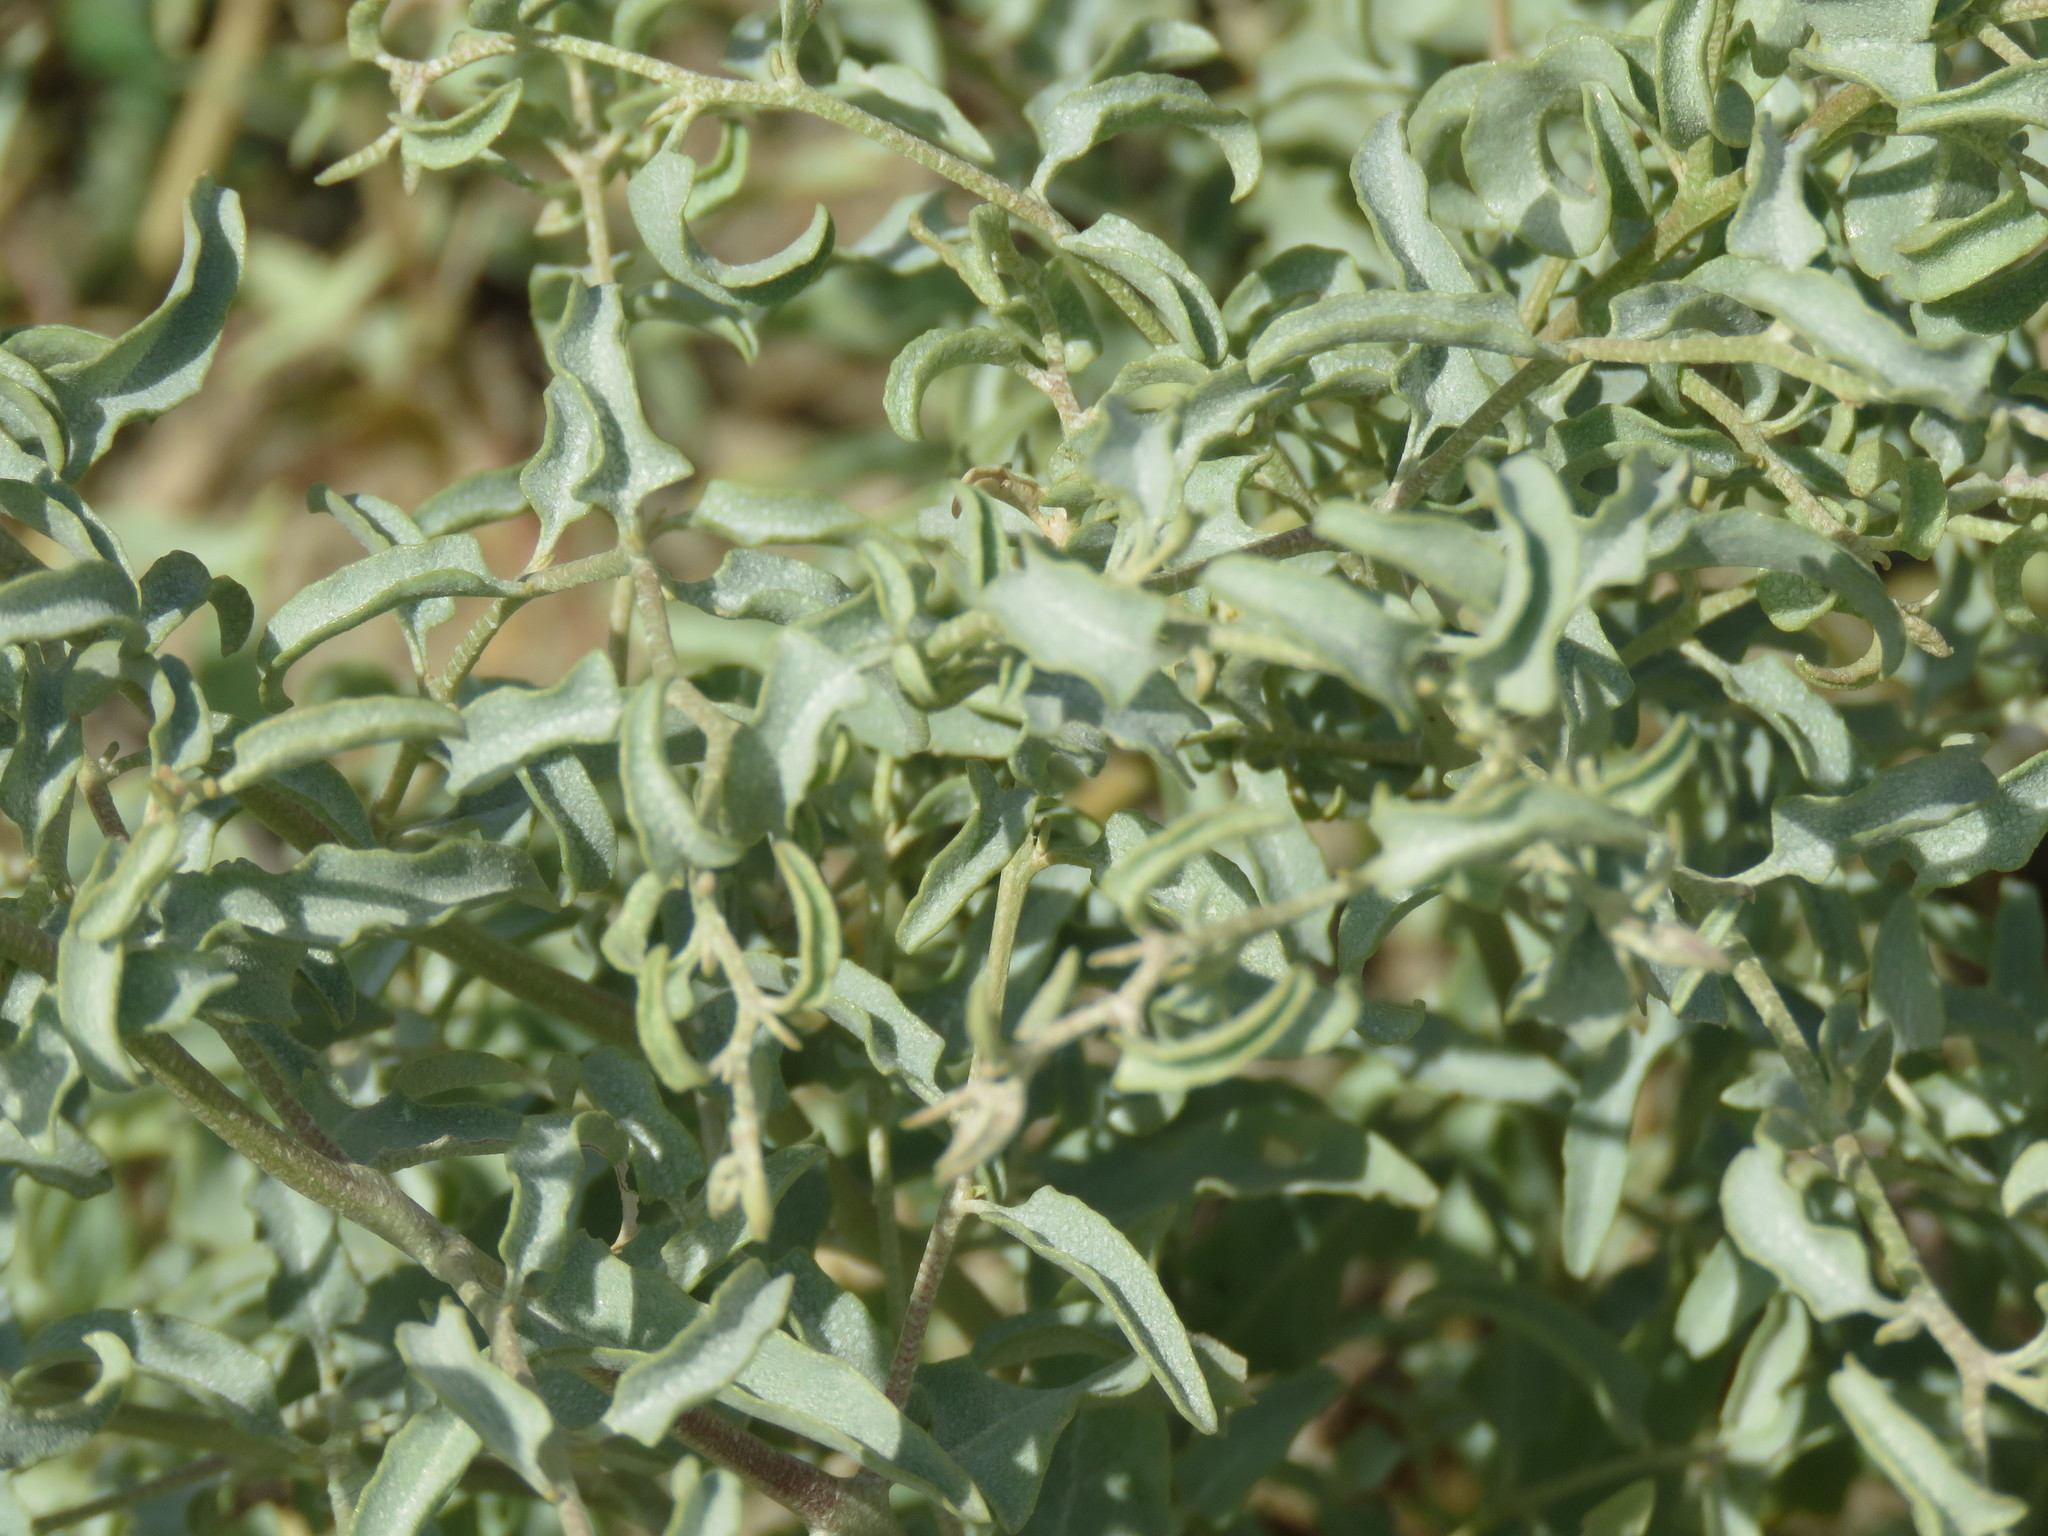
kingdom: Plantae
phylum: Tracheophyta
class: Magnoliopsida
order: Caryophyllales
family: Amaranthaceae
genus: Atriplex
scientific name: Atriplex acanthocarpa
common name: Burscale
